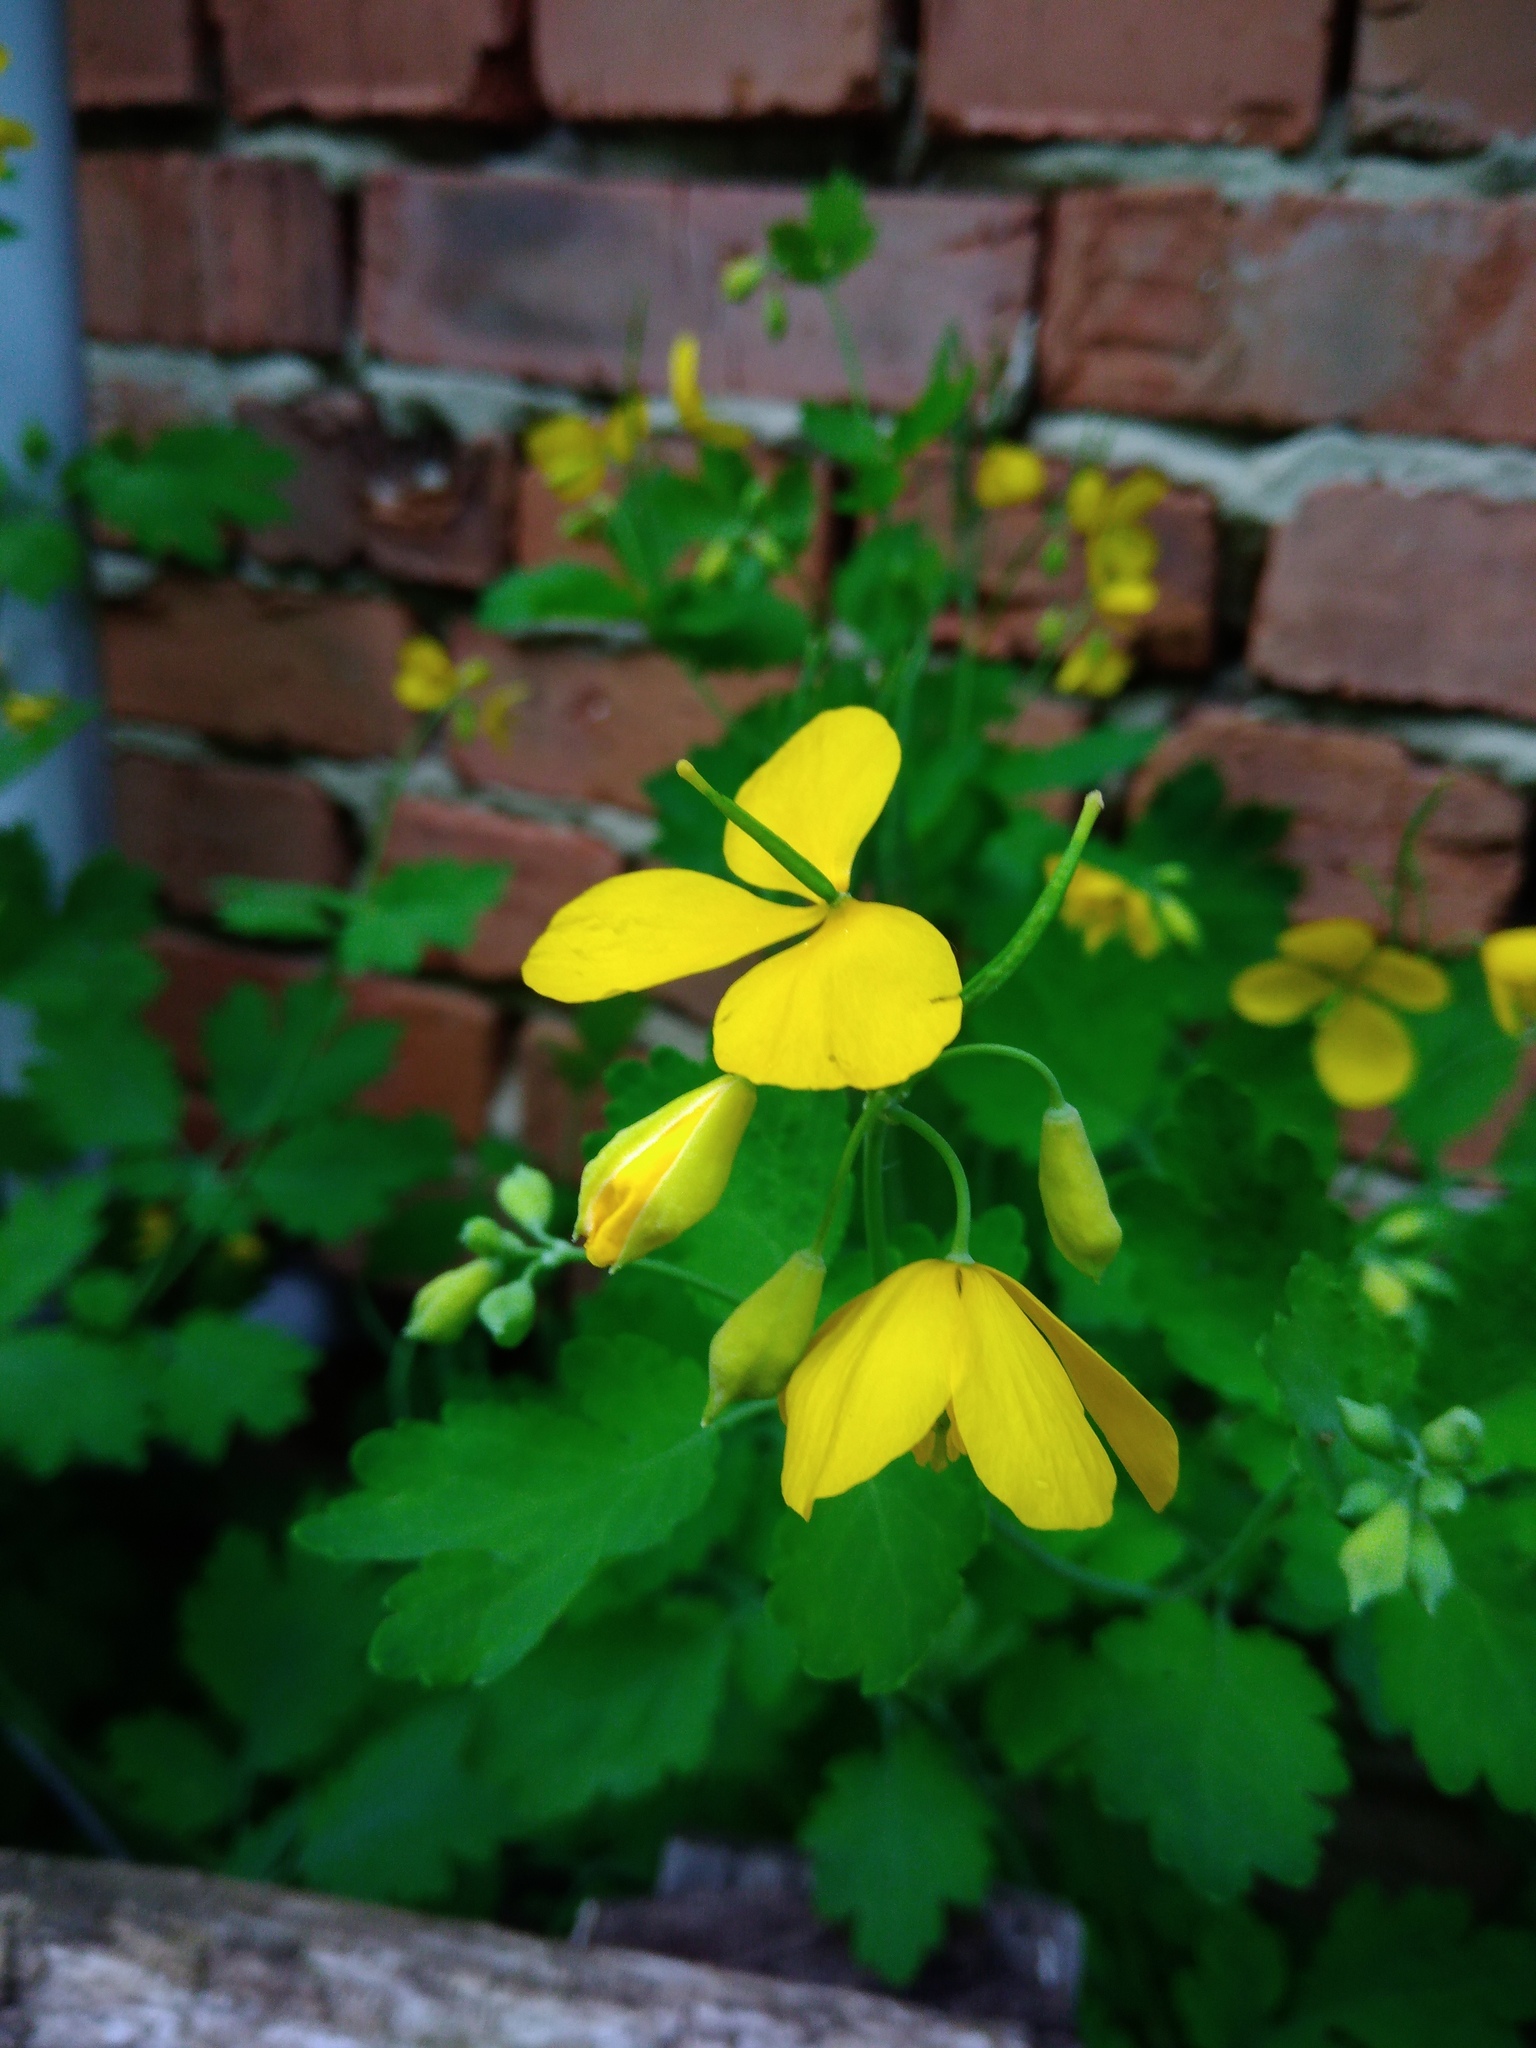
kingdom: Plantae
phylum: Tracheophyta
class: Magnoliopsida
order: Ranunculales
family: Papaveraceae
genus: Chelidonium
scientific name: Chelidonium majus
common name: Greater celandine
